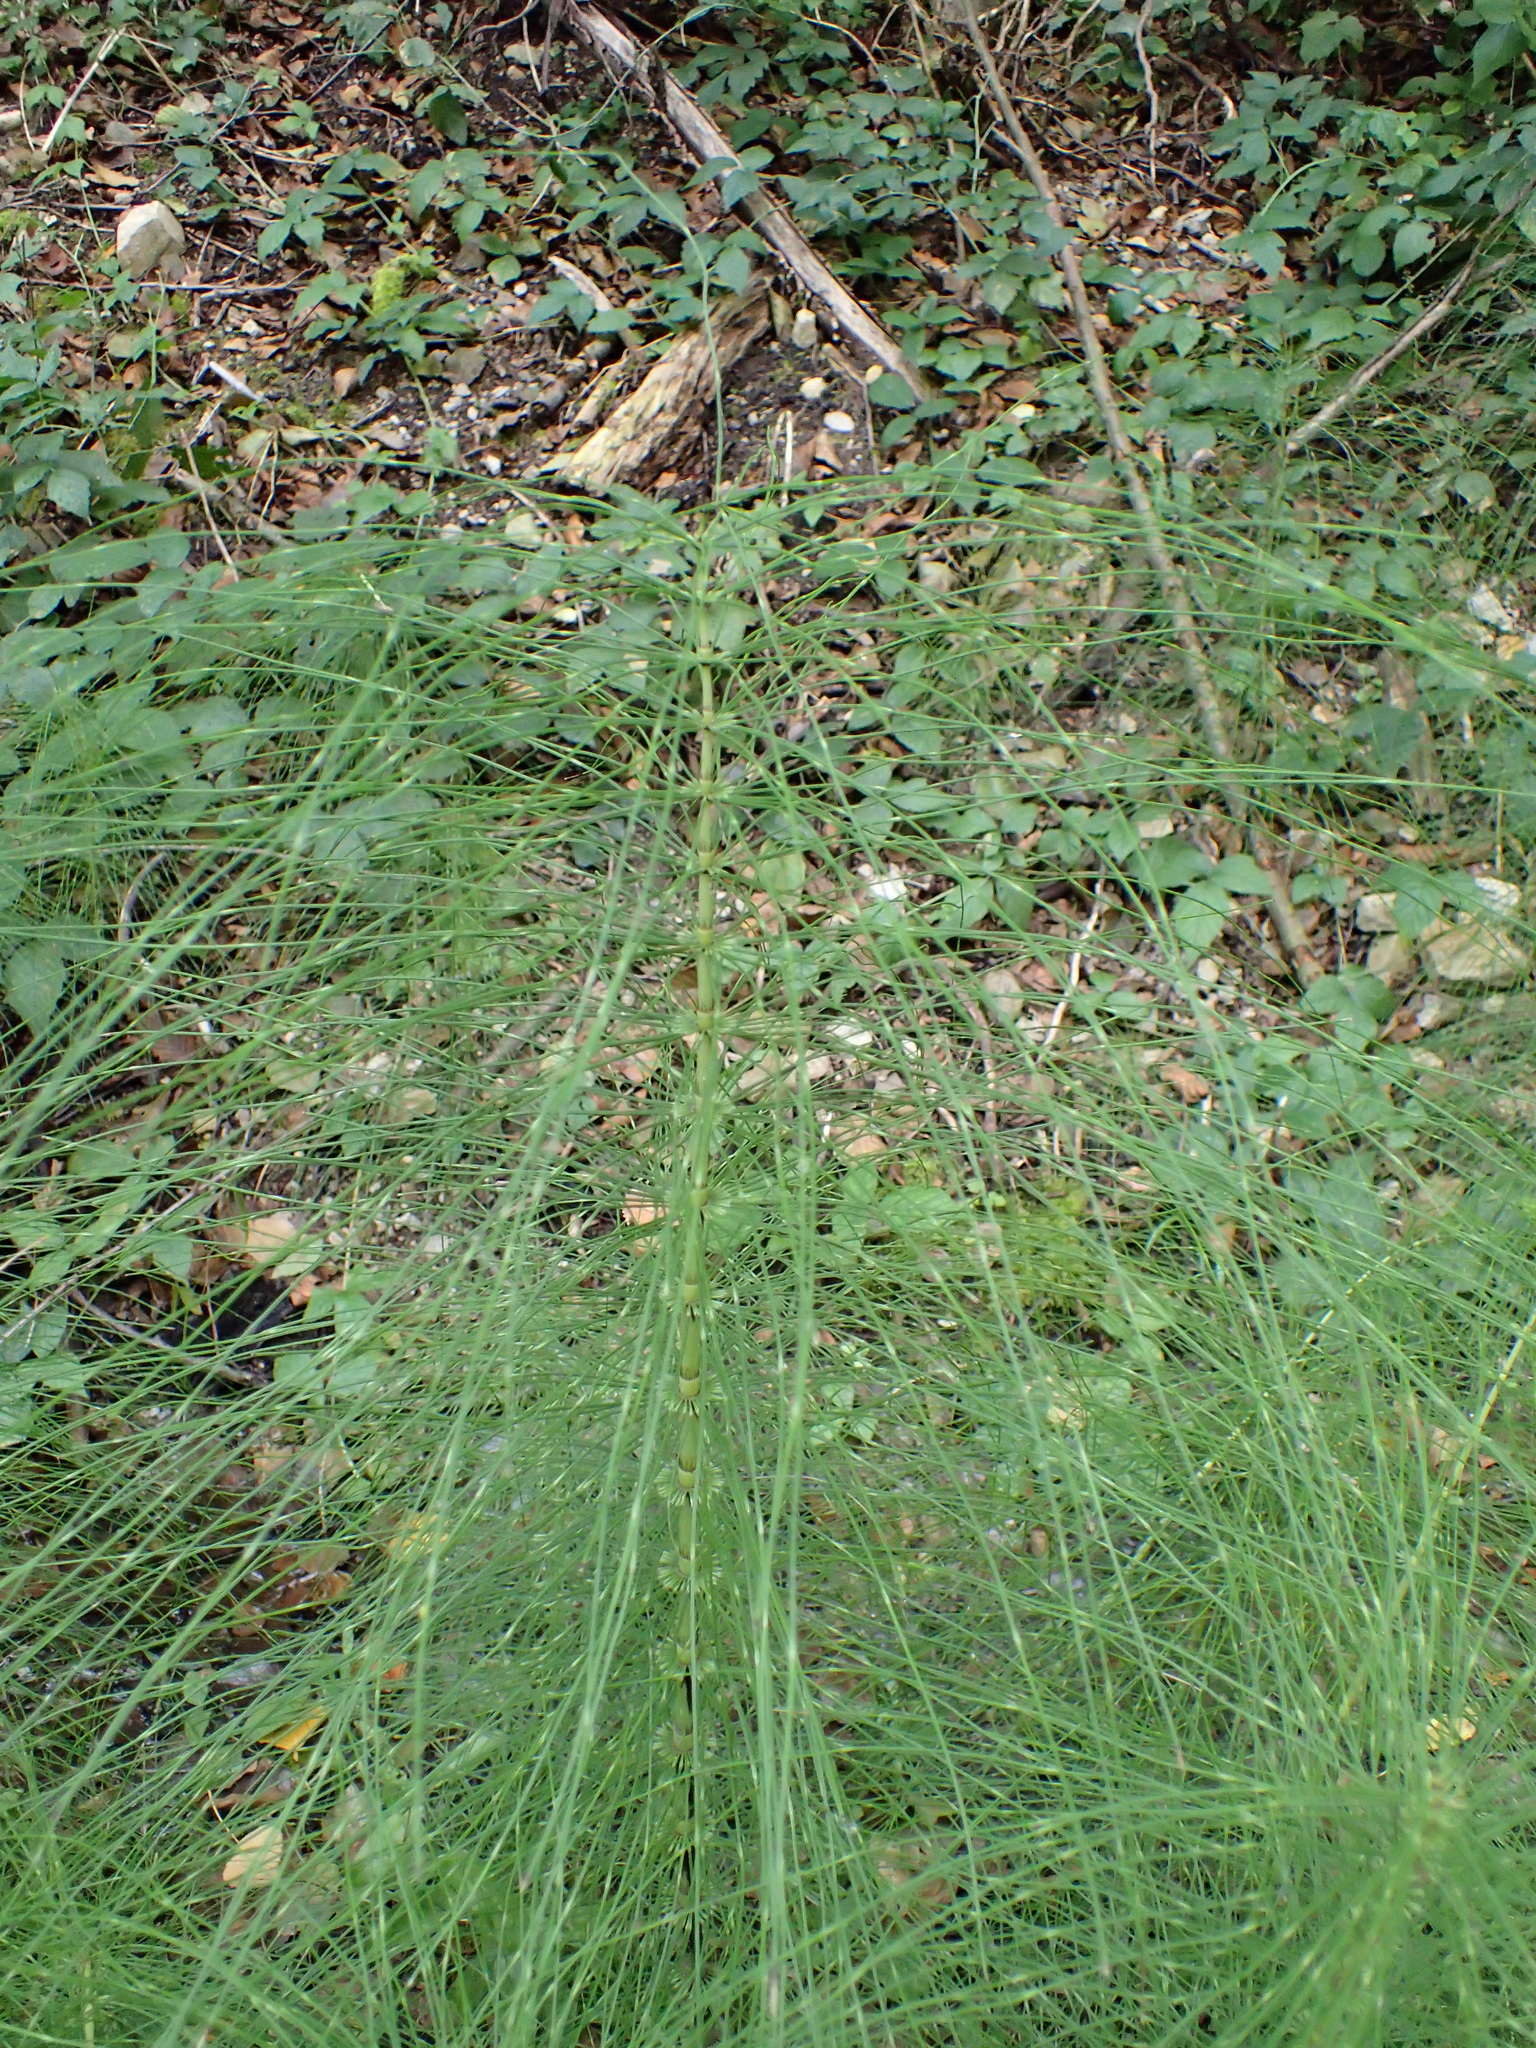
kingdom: Plantae
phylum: Tracheophyta
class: Polypodiopsida
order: Equisetales
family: Equisetaceae
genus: Equisetum
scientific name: Equisetum telmateia
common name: Great horsetail
